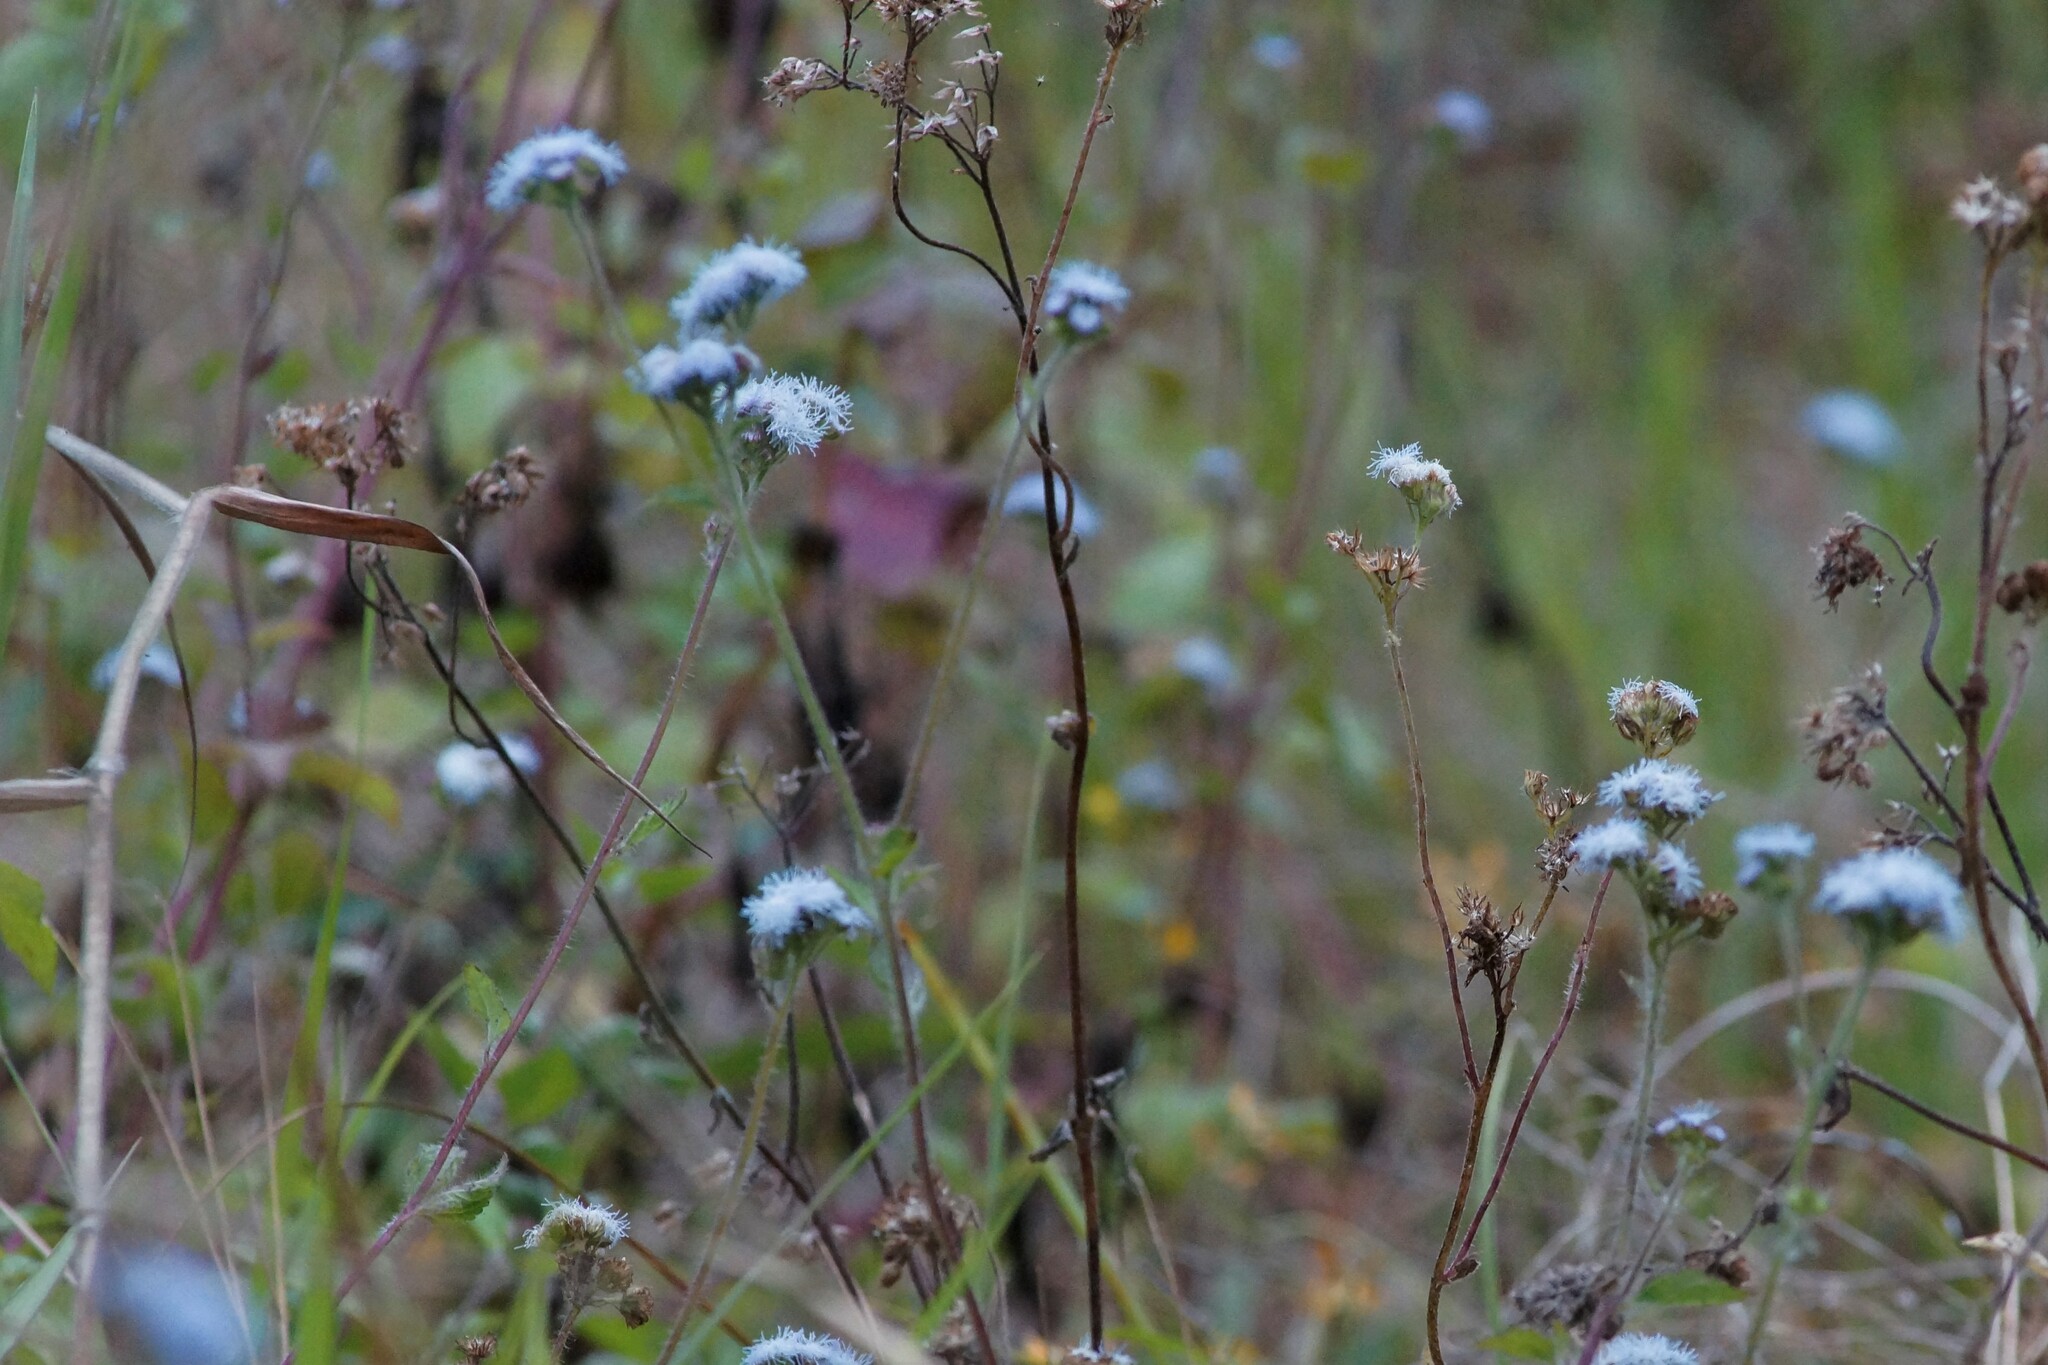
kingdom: Plantae
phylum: Tracheophyta
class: Magnoliopsida
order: Asterales
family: Asteraceae
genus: Ageratum
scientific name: Ageratum houstonianum
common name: Bluemink
